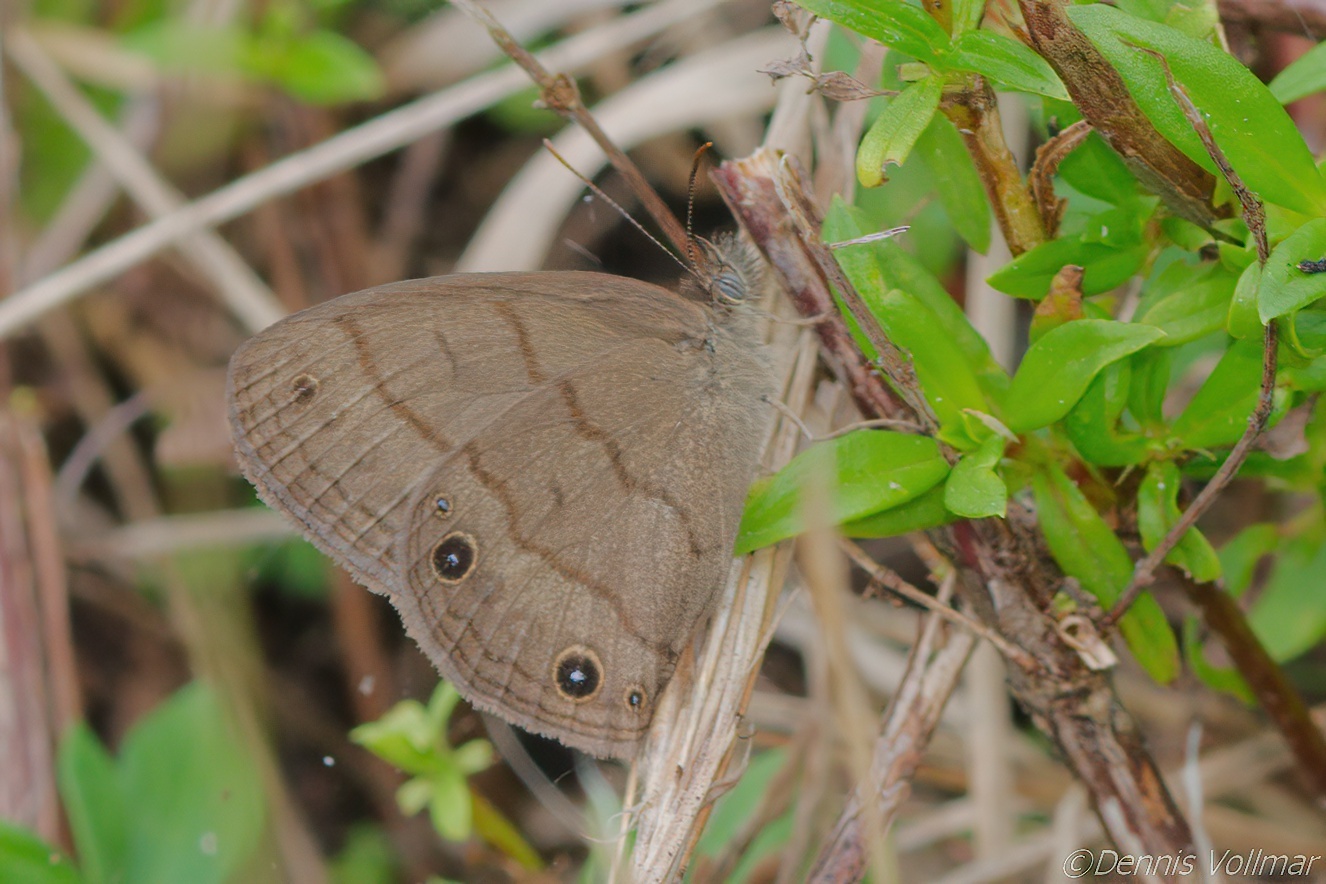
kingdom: Animalia
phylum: Arthropoda
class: Insecta
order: Lepidoptera
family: Nymphalidae
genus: Hermeuptychia
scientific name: Hermeuptychia hermes
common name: Hermes satyr
